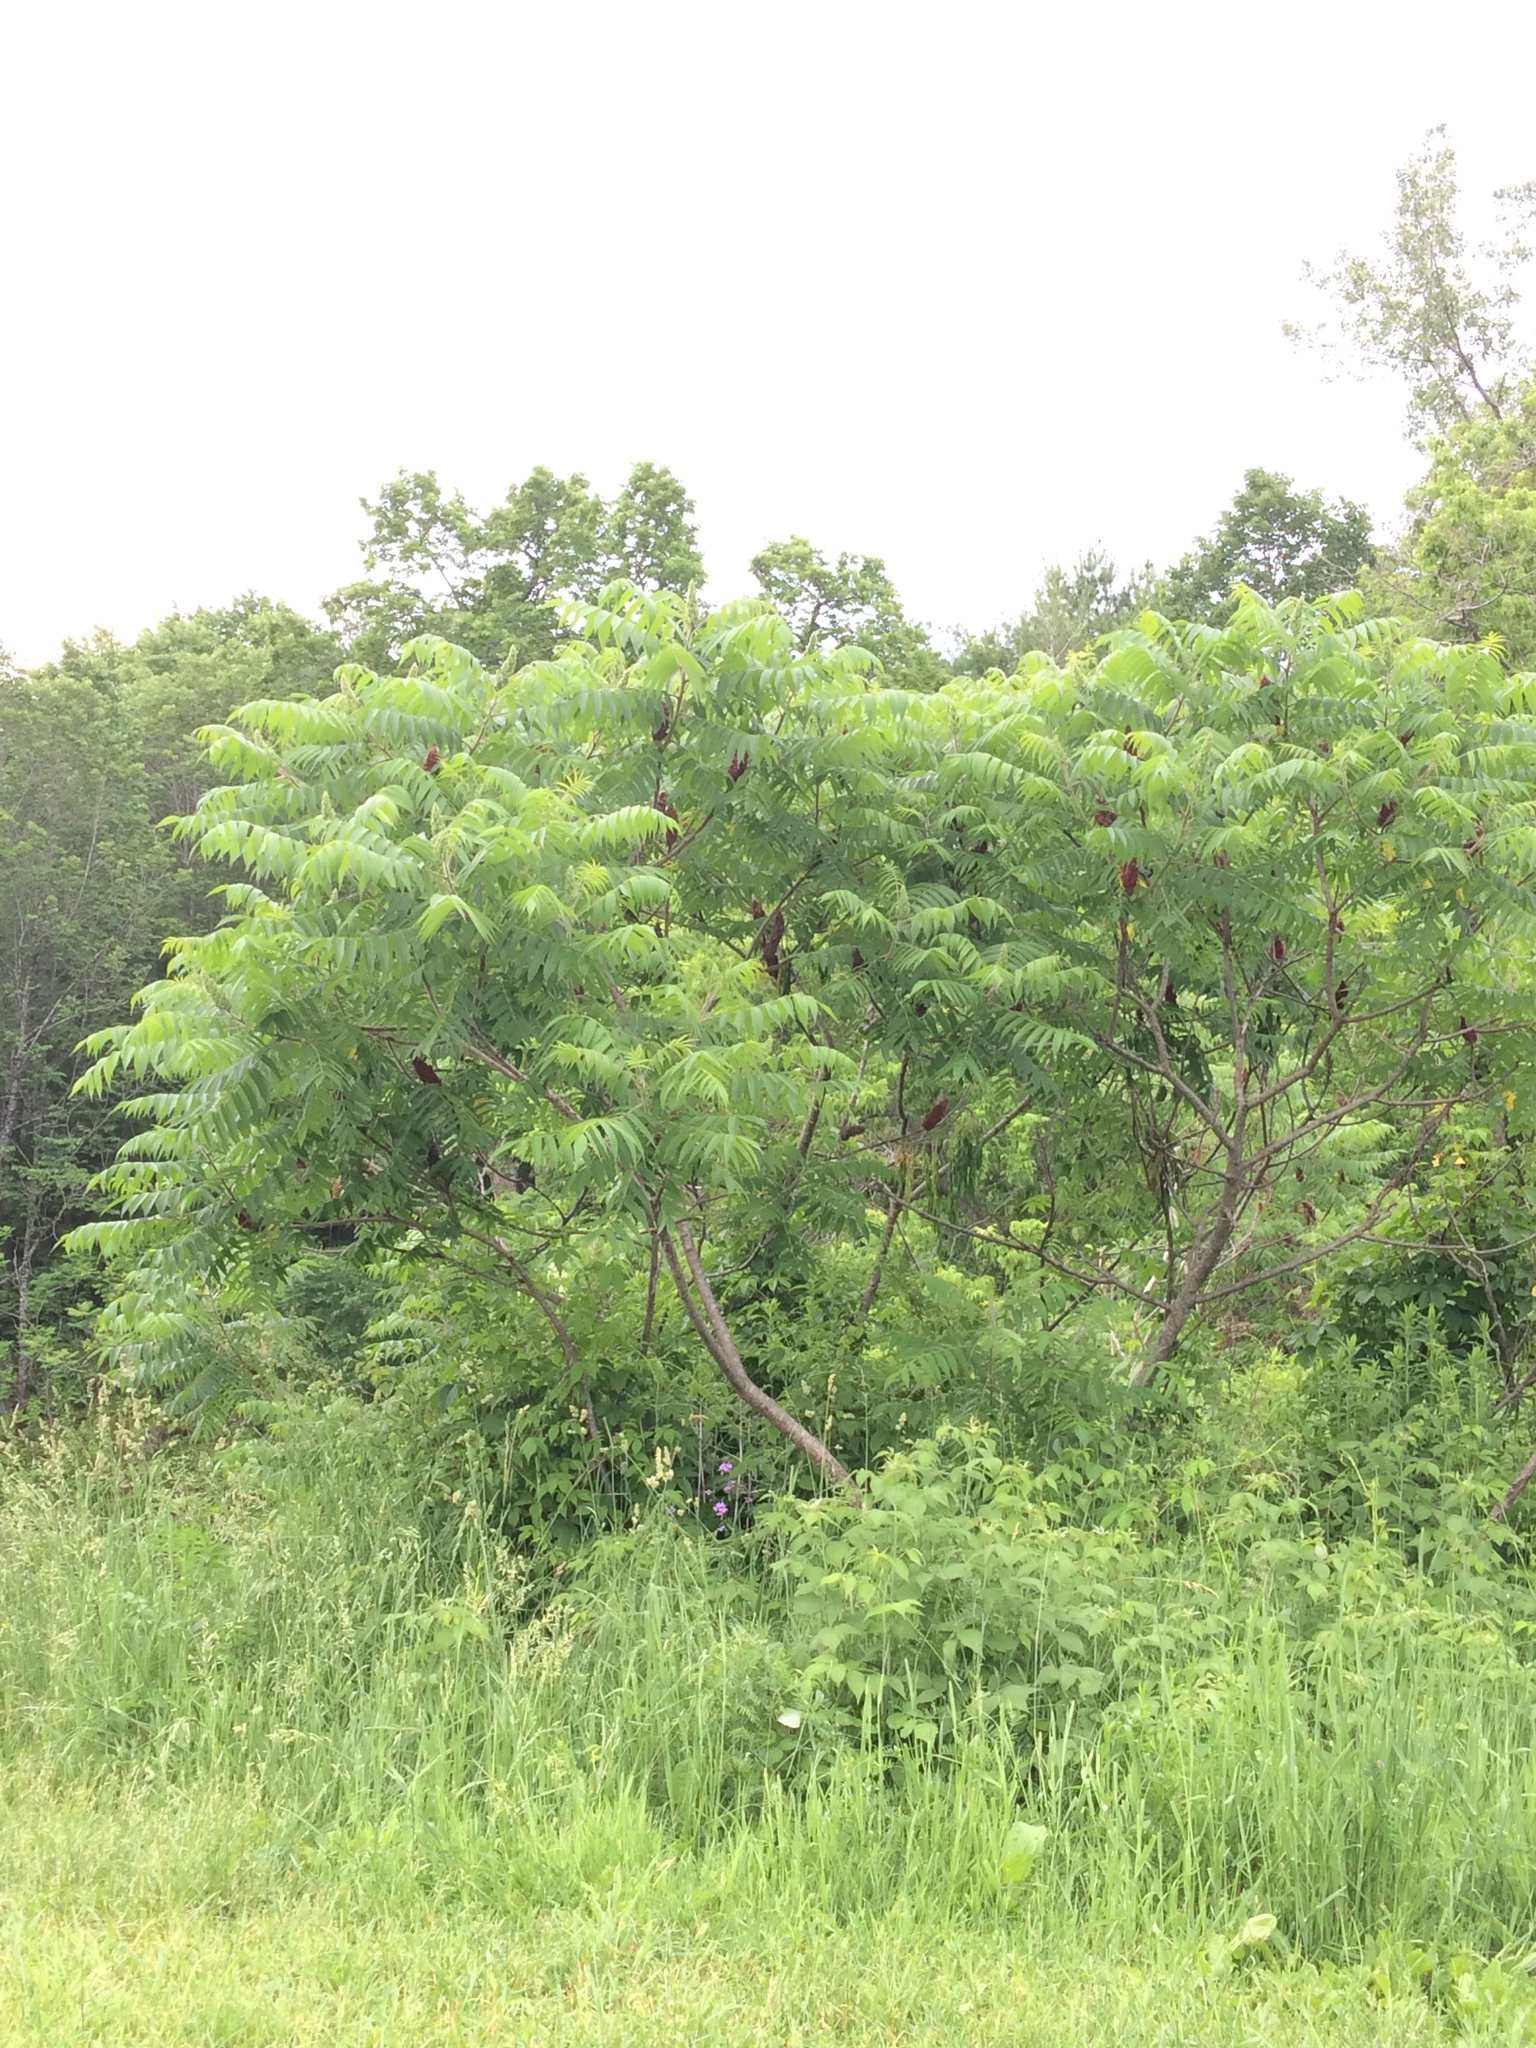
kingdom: Plantae
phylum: Tracheophyta
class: Magnoliopsida
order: Sapindales
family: Anacardiaceae
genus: Rhus
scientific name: Rhus typhina
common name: Staghorn sumac
